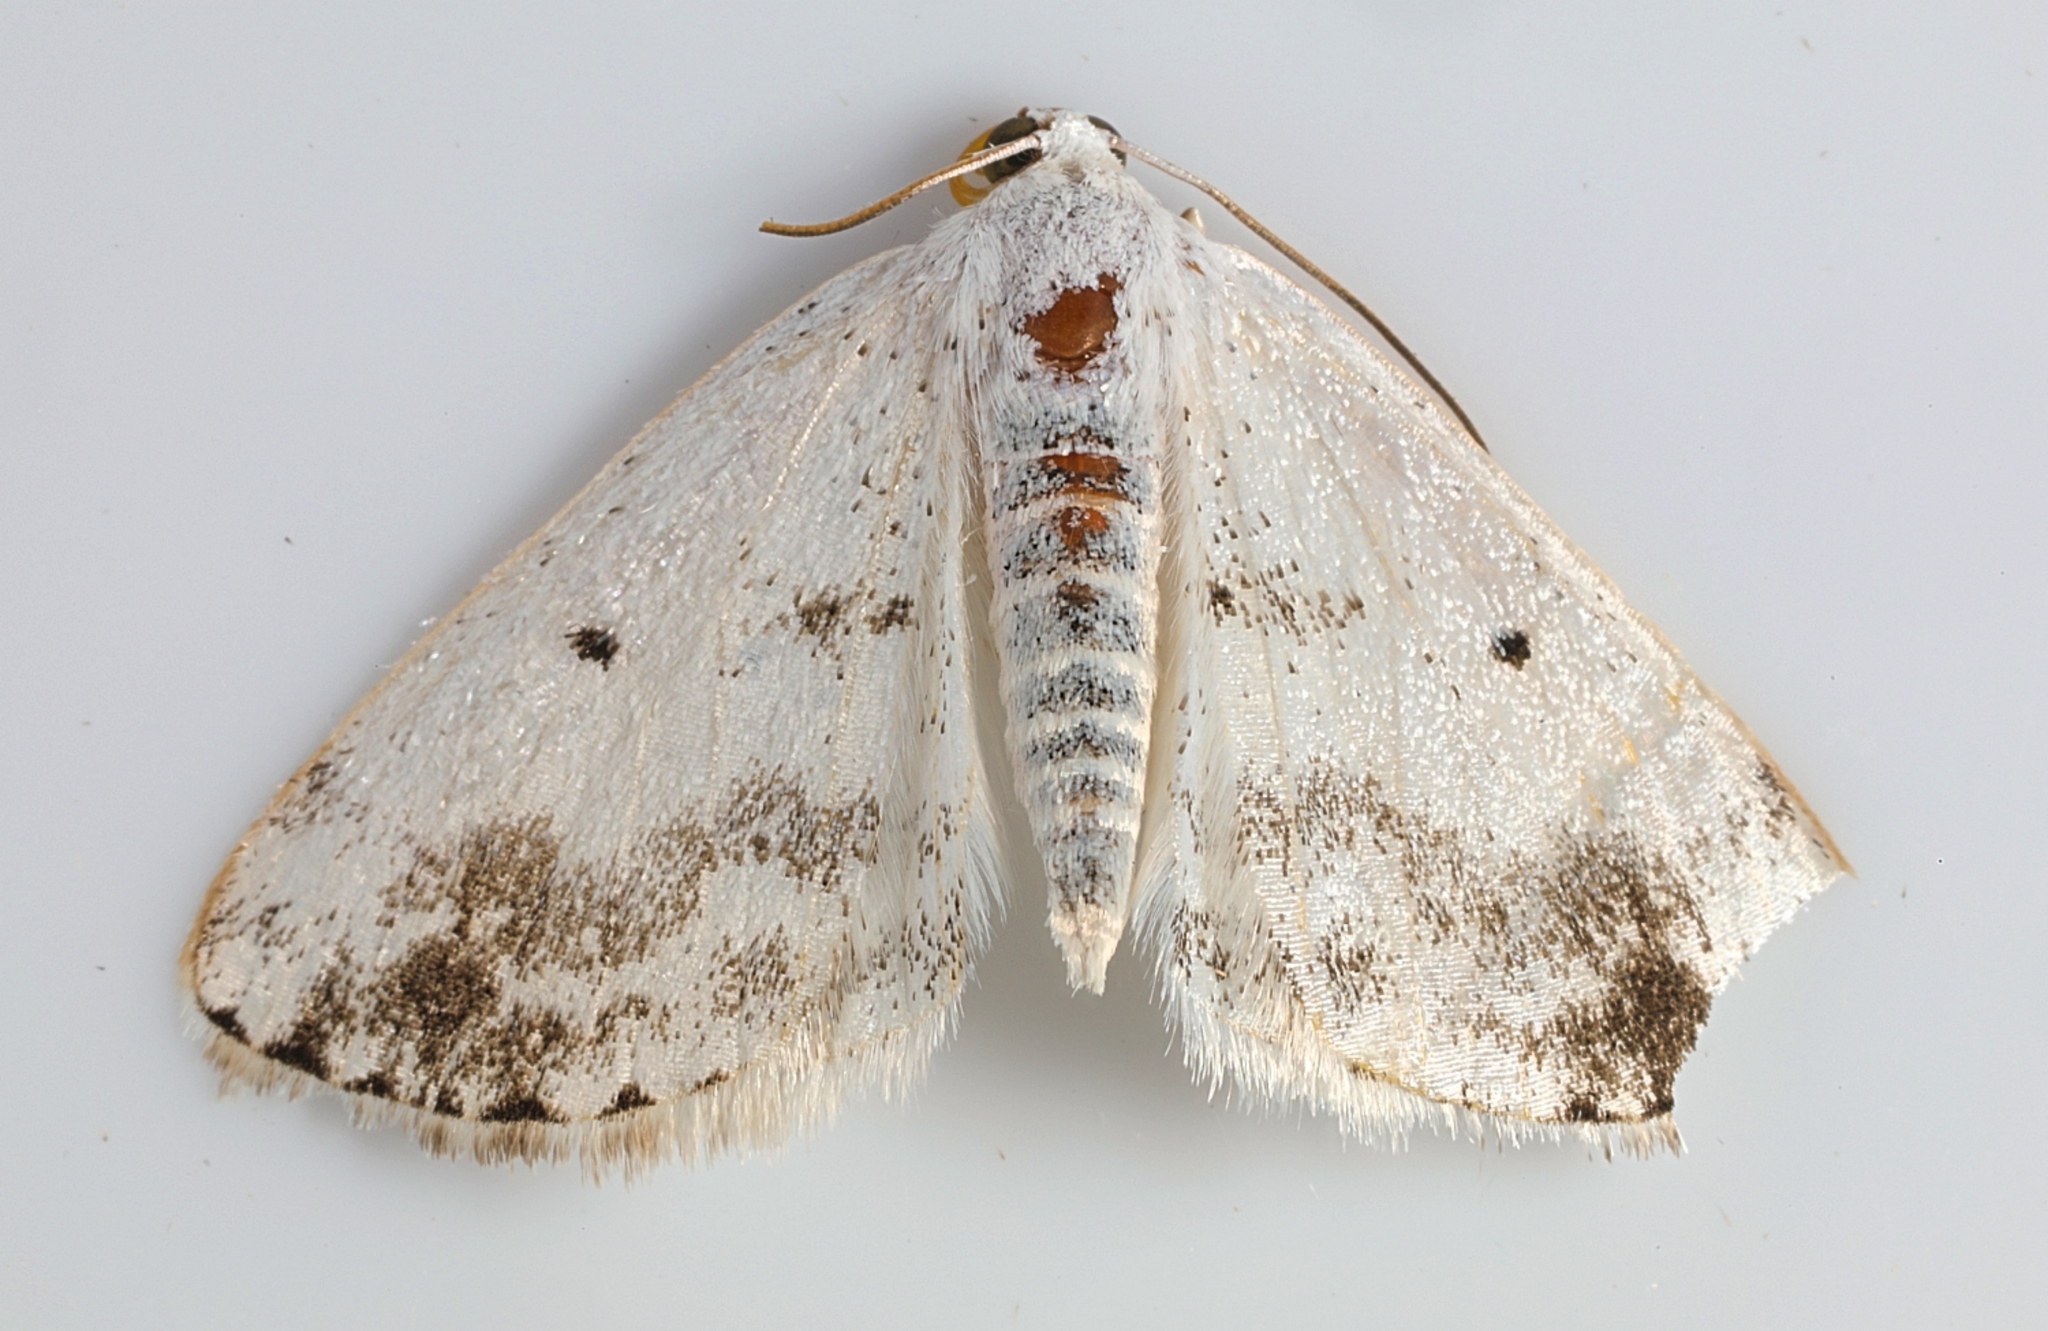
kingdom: Animalia
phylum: Arthropoda
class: Insecta
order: Lepidoptera
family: Geometridae
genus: Lomographa
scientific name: Lomographa temerata
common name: Clouded silver
